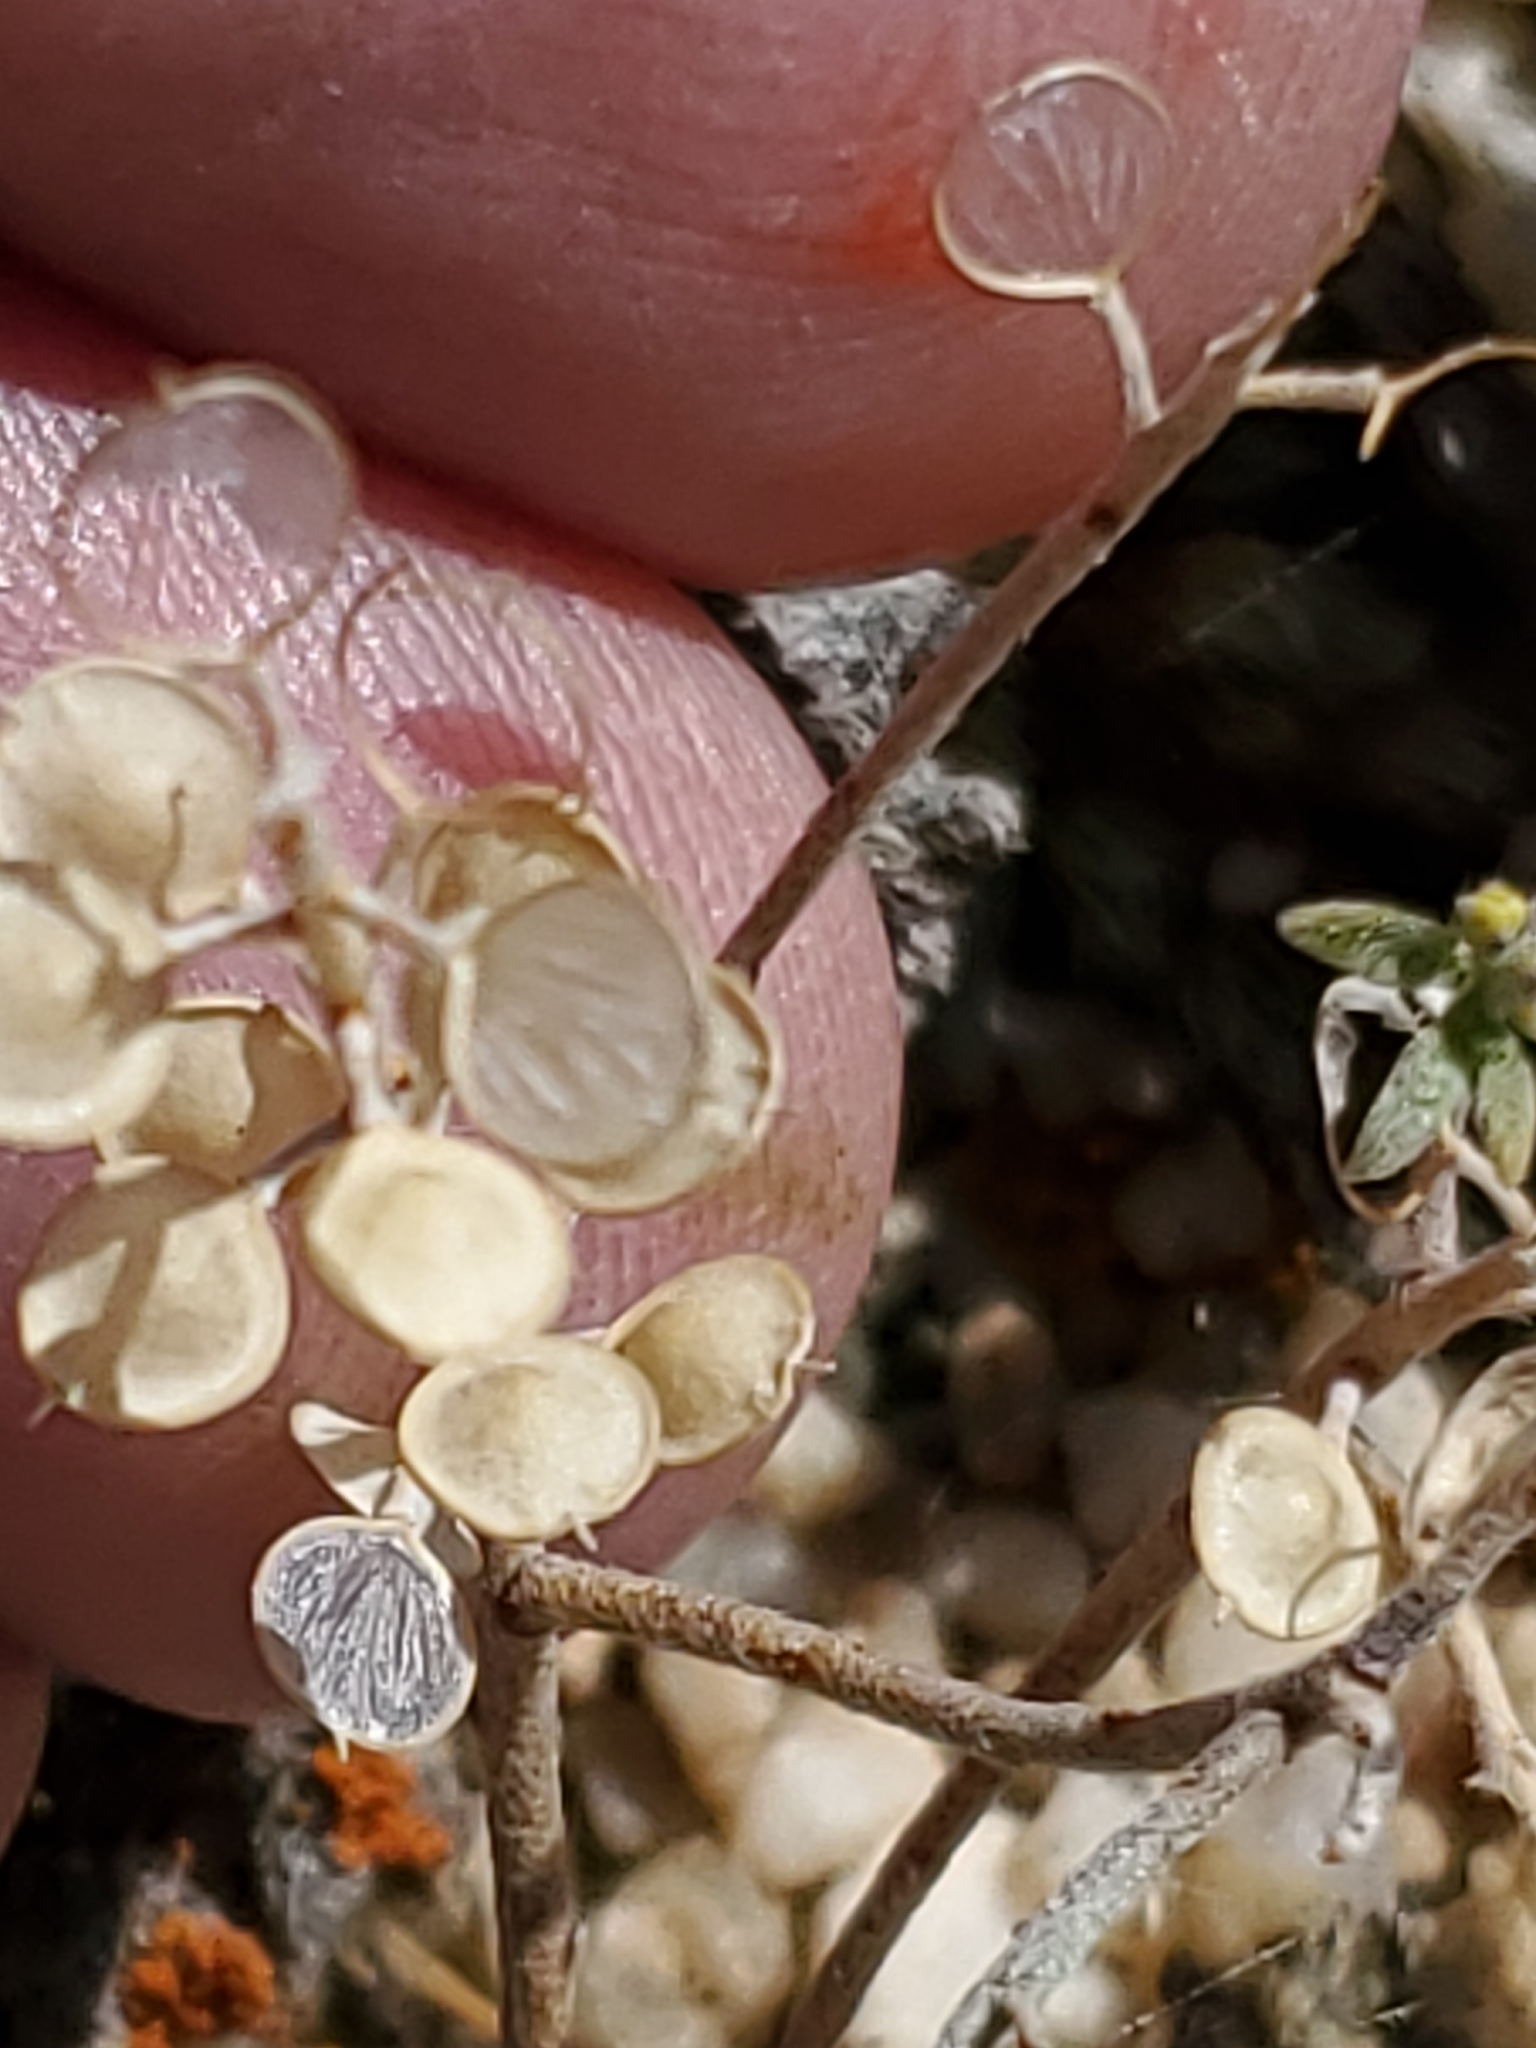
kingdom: Plantae
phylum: Tracheophyta
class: Magnoliopsida
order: Brassicales
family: Brassicaceae
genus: Alyssum
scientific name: Alyssum turkestanicum
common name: Desert alyssum
